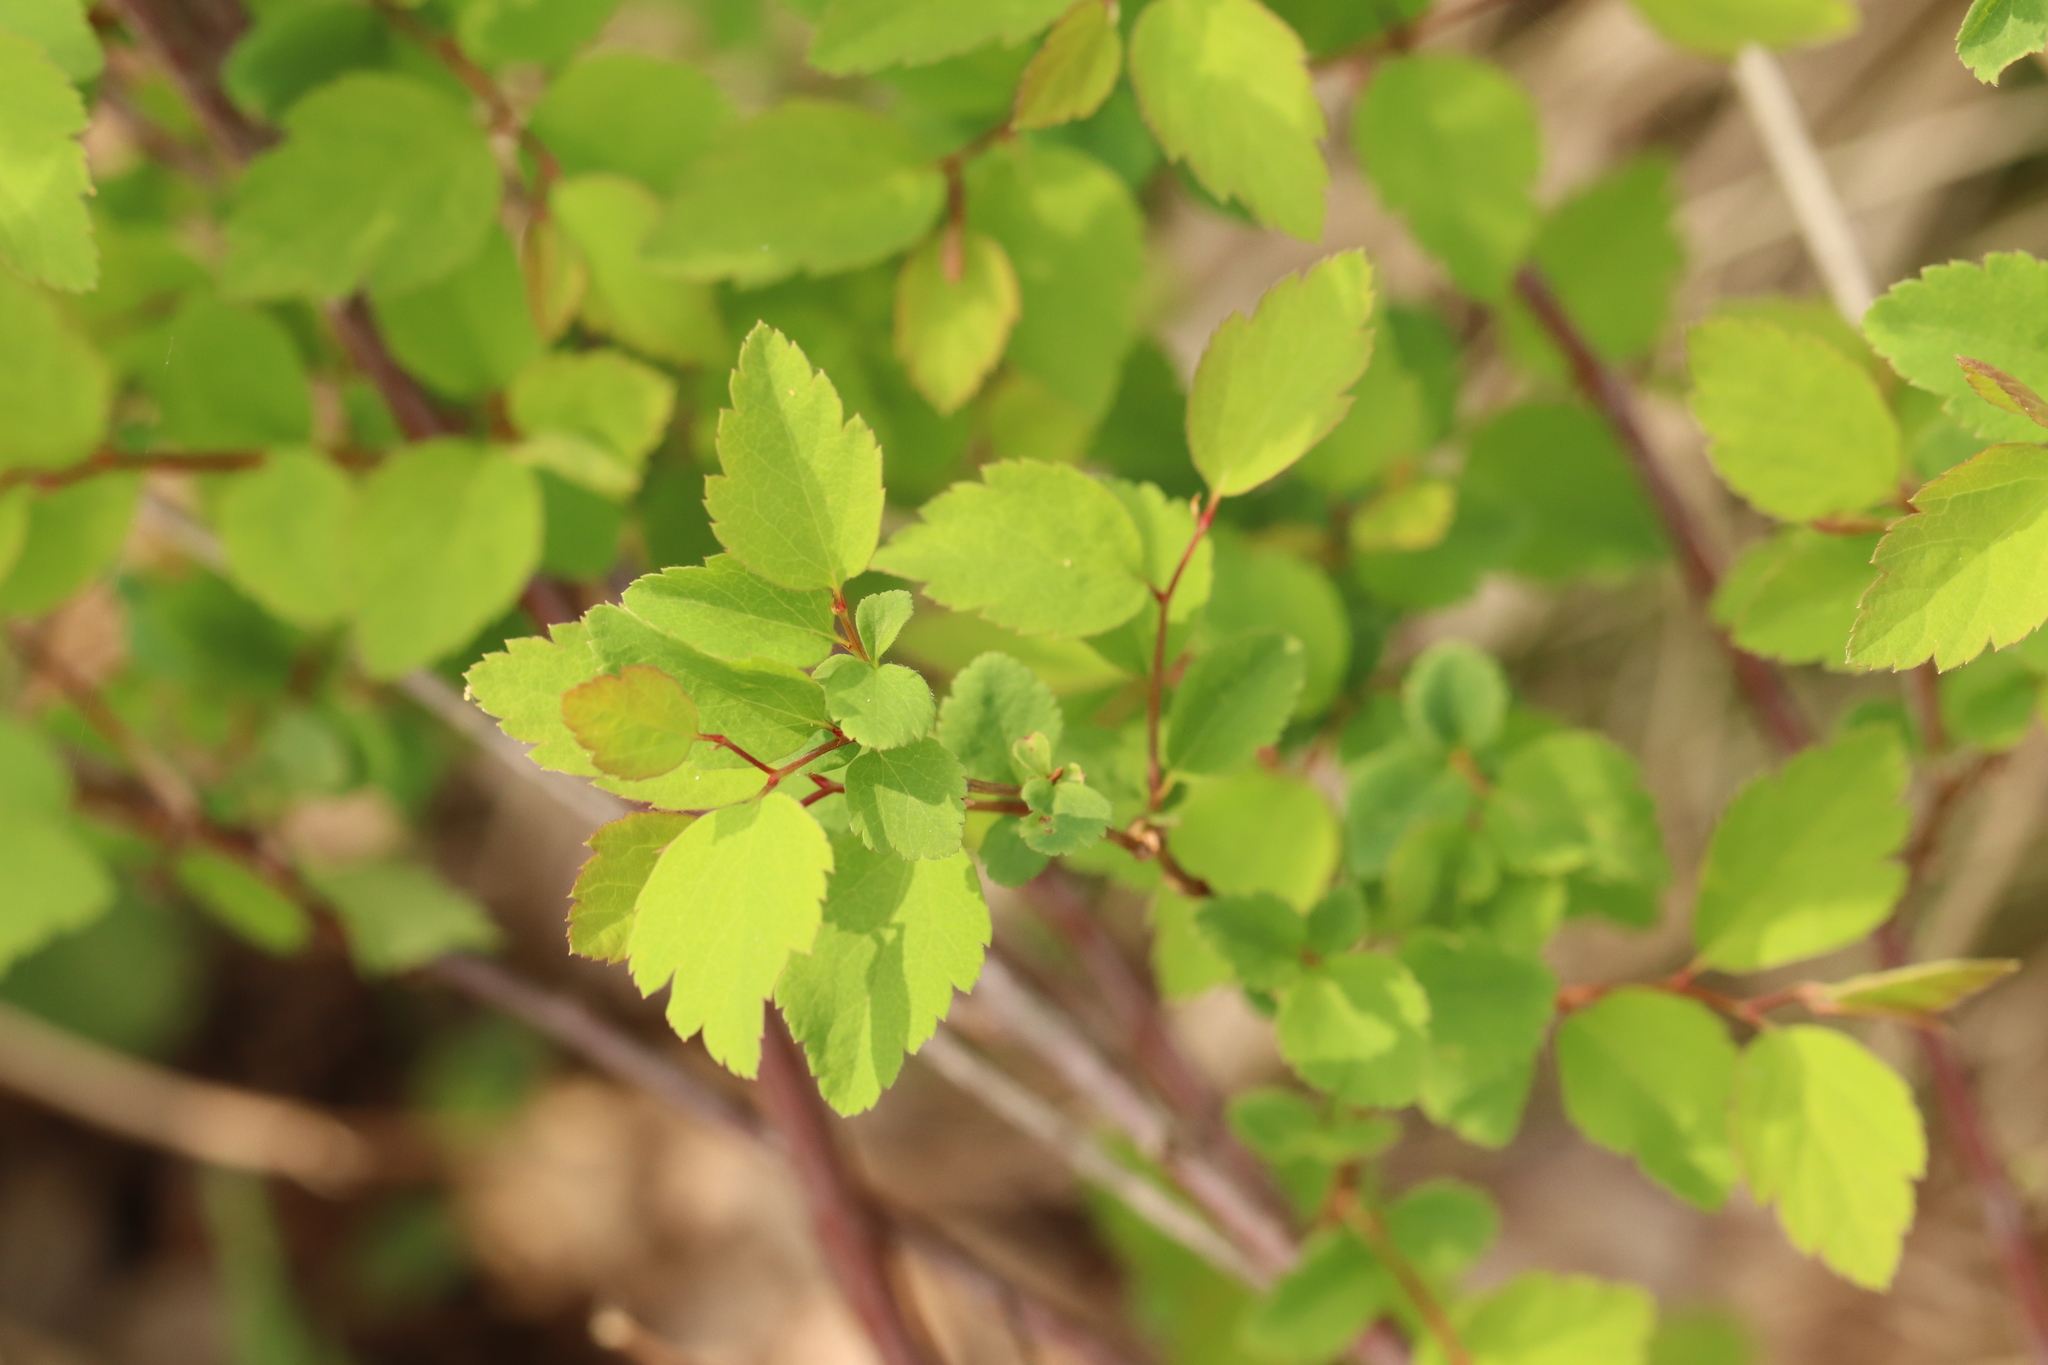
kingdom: Plantae
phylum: Tracheophyta
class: Magnoliopsida
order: Rosales
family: Rosaceae
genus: Spiraea
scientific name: Spiraea chamaedryfolia
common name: Elm-leaved spiraea
